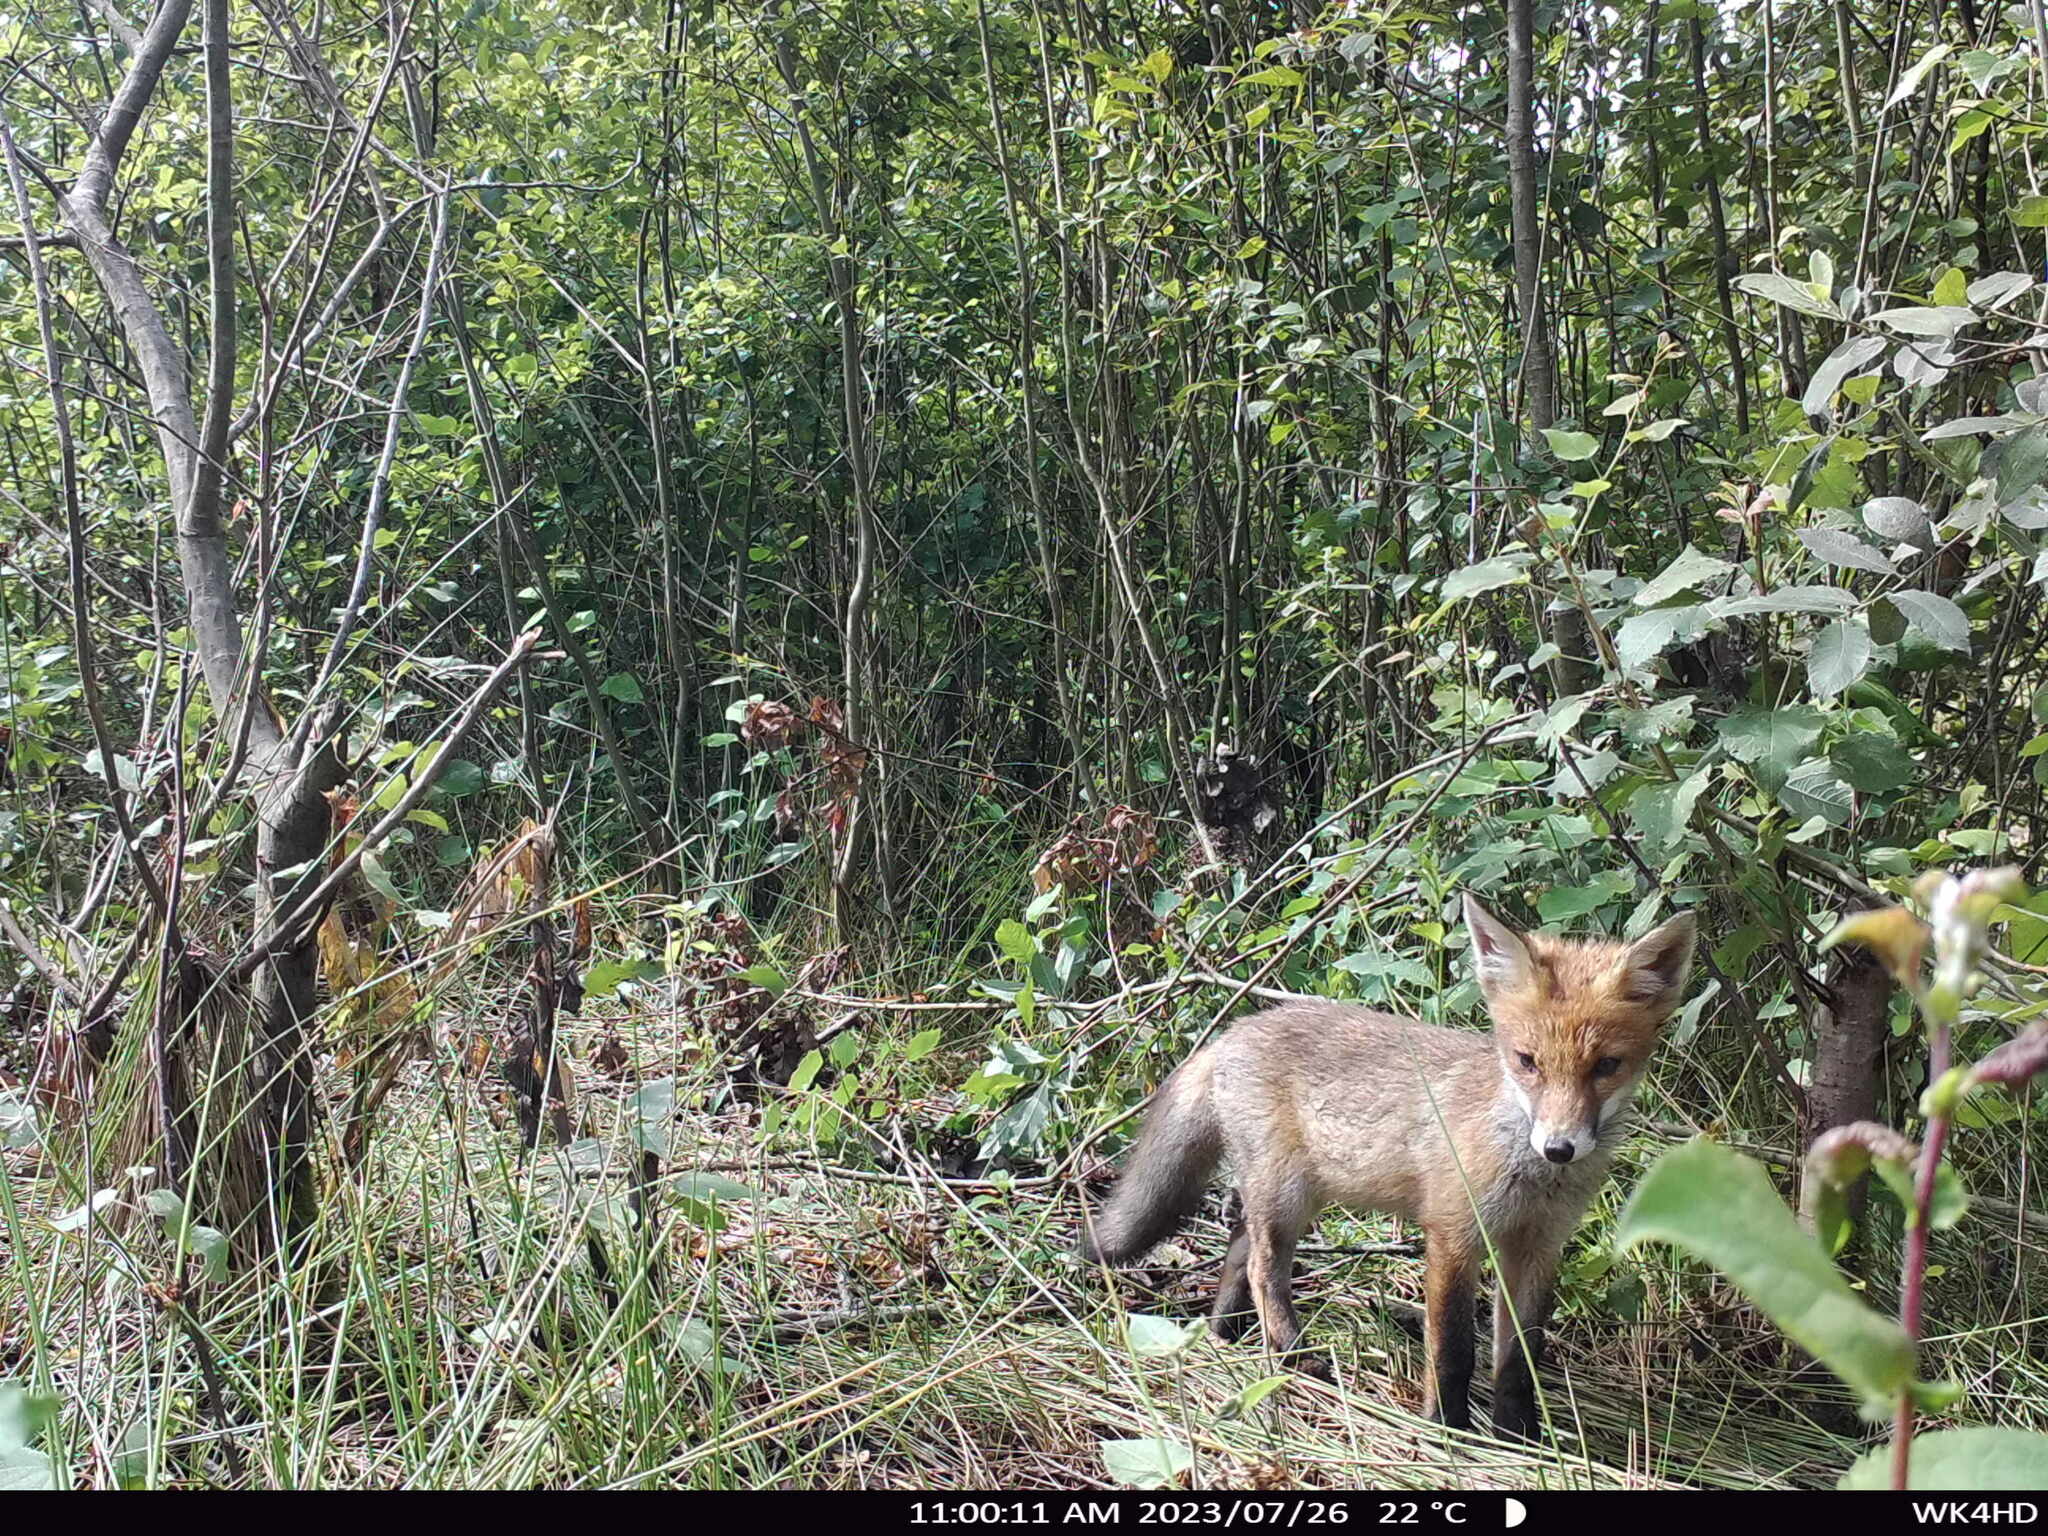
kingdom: Animalia
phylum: Chordata
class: Mammalia
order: Carnivora
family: Canidae
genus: Vulpes
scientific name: Vulpes vulpes
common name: Red fox
